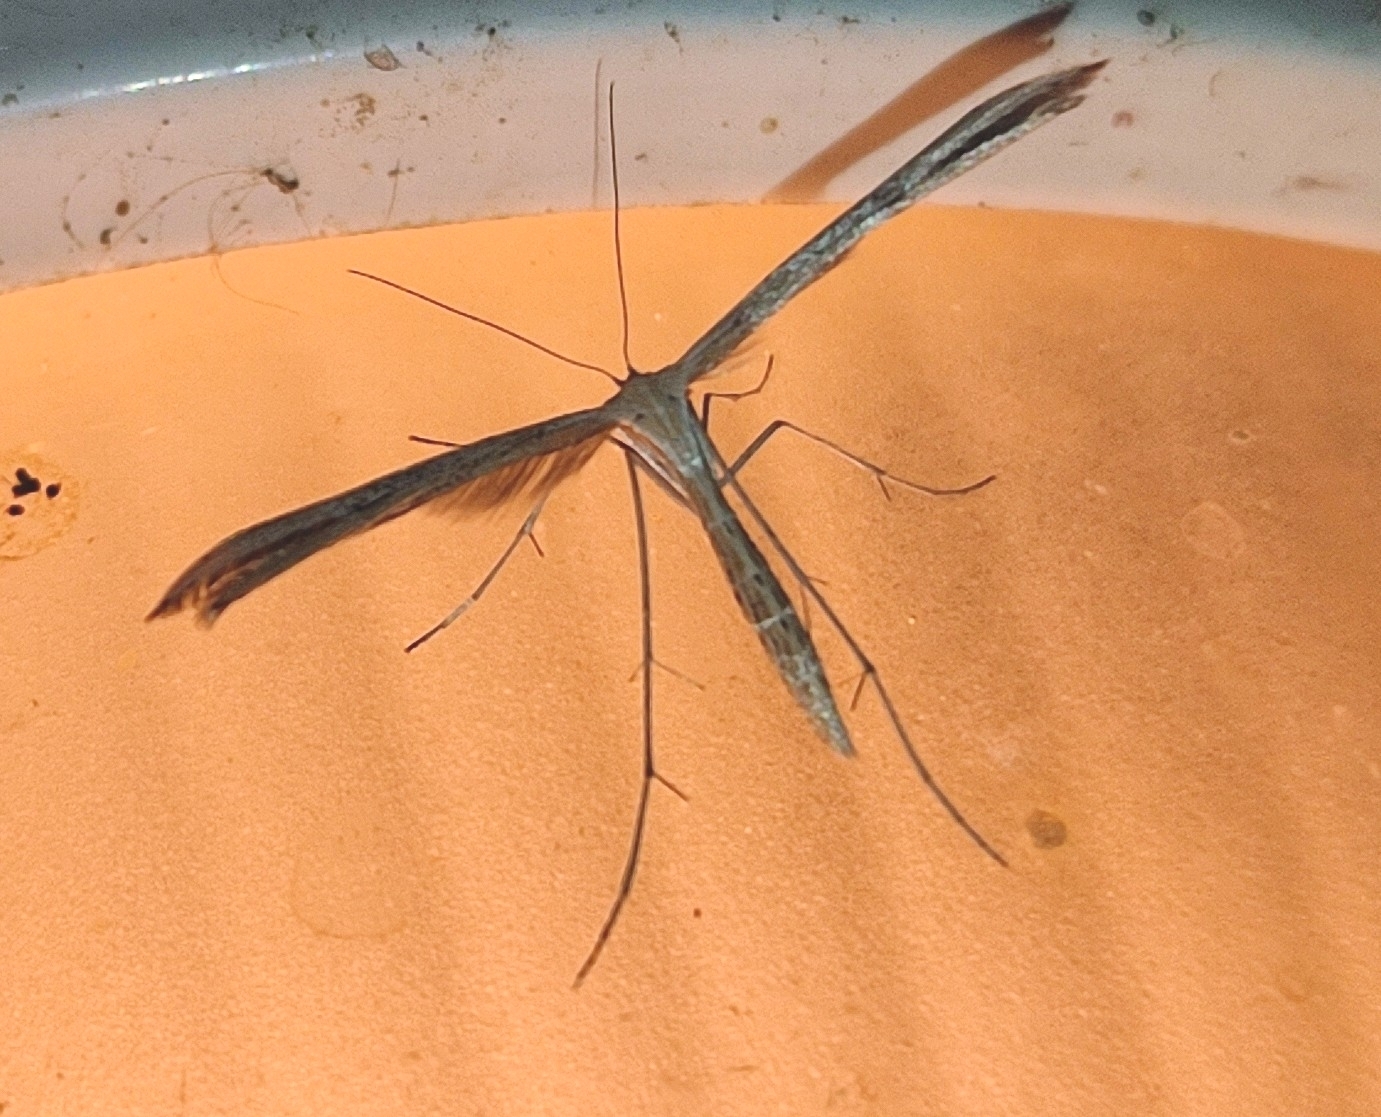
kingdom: Animalia
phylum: Arthropoda
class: Insecta
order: Lepidoptera
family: Pterophoridae
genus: Emmelina
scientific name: Emmelina monodactyla
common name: Common plume
